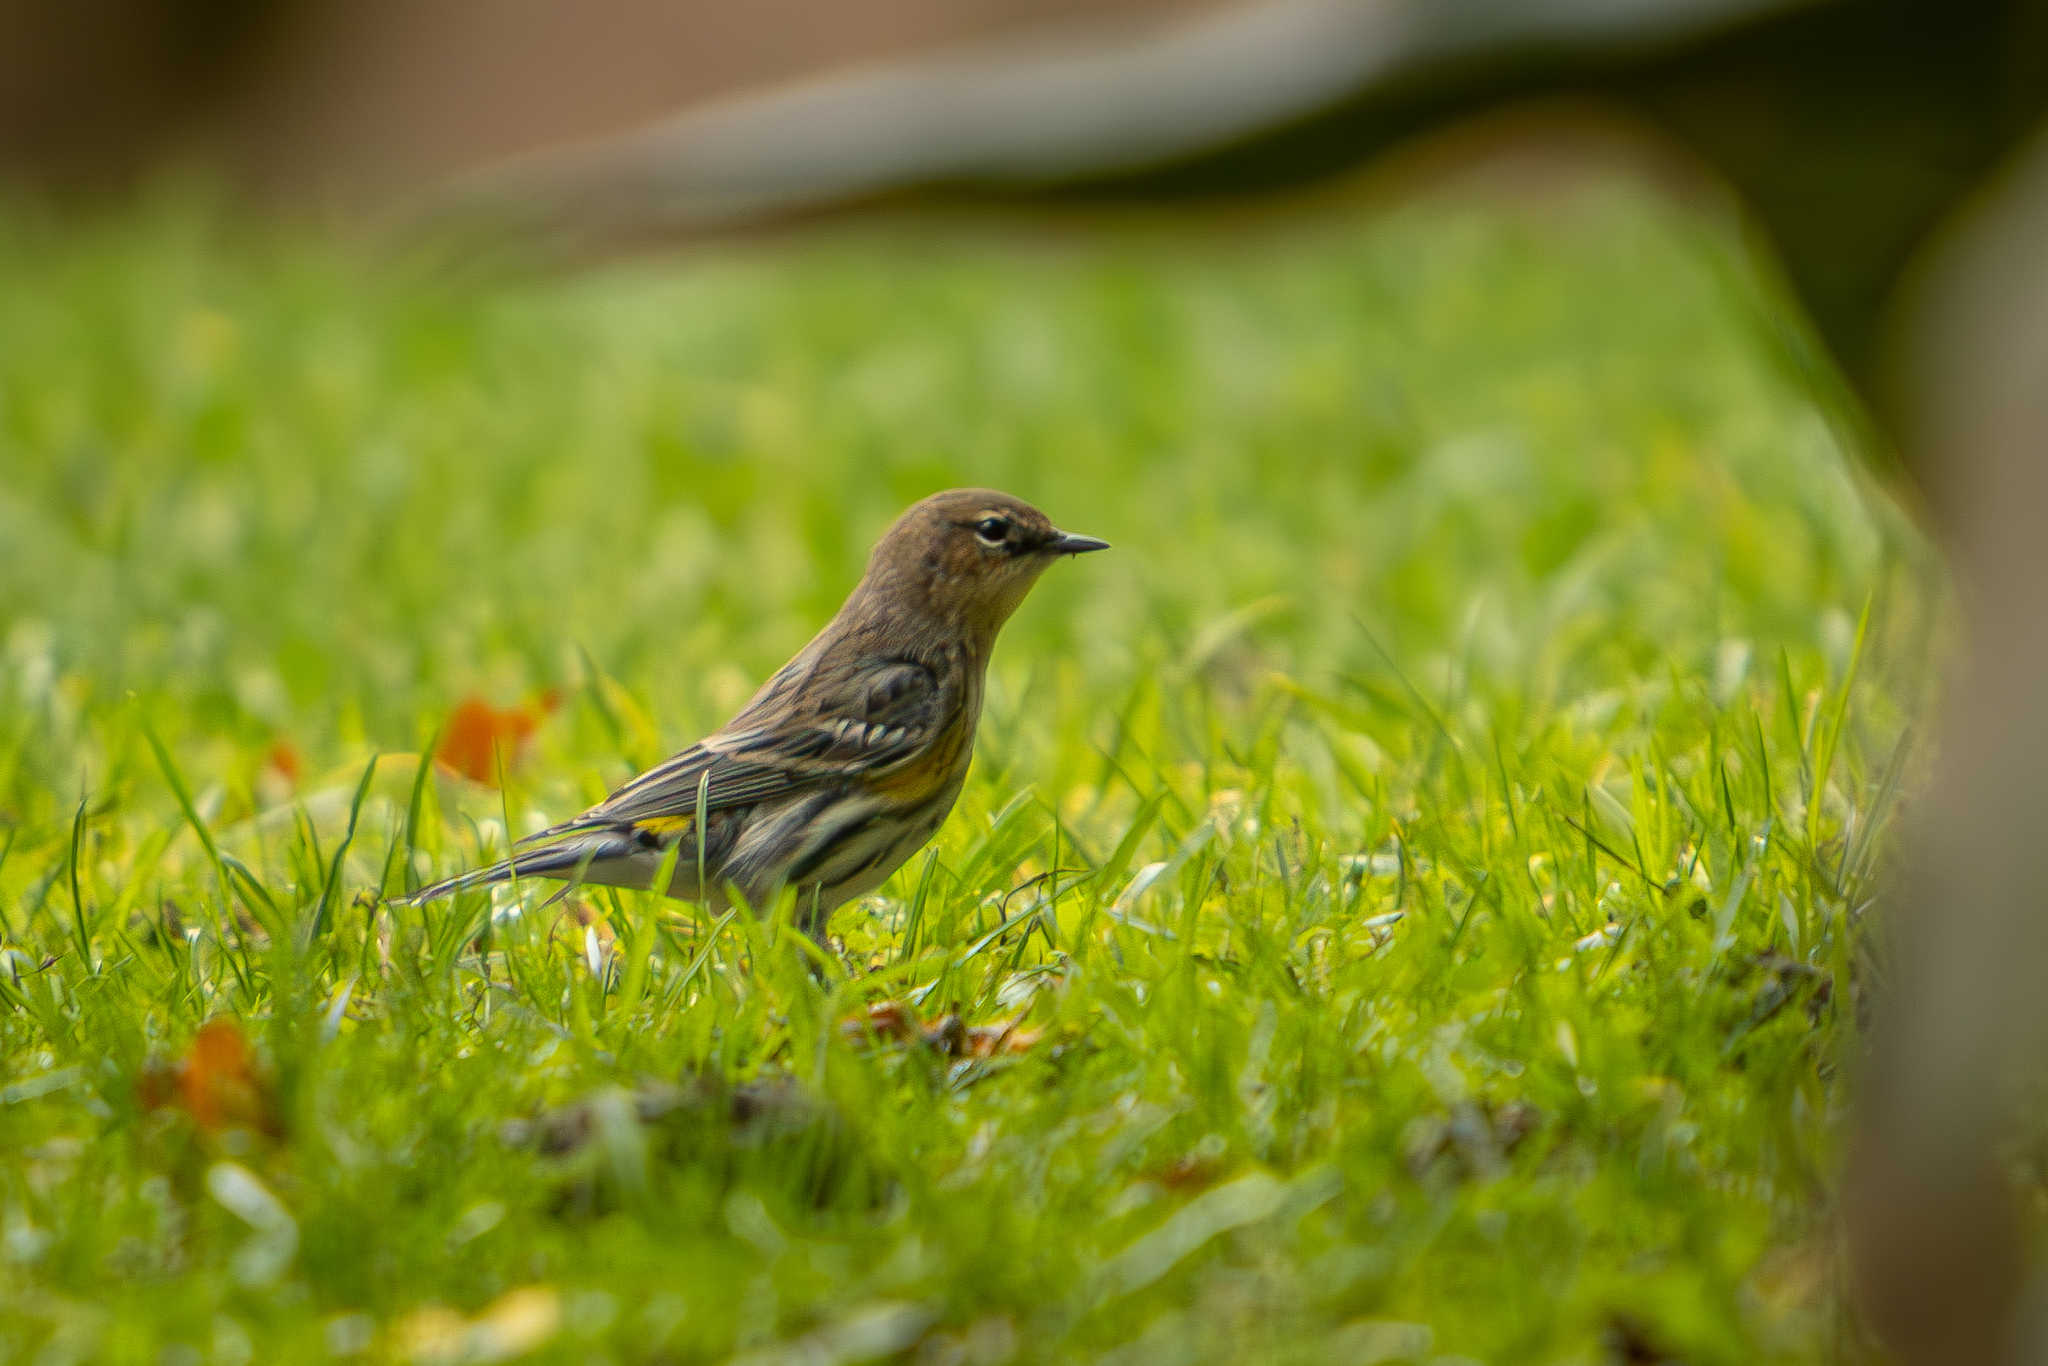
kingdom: Animalia
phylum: Chordata
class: Aves
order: Passeriformes
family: Parulidae
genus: Setophaga
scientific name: Setophaga coronata
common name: Myrtle warbler
